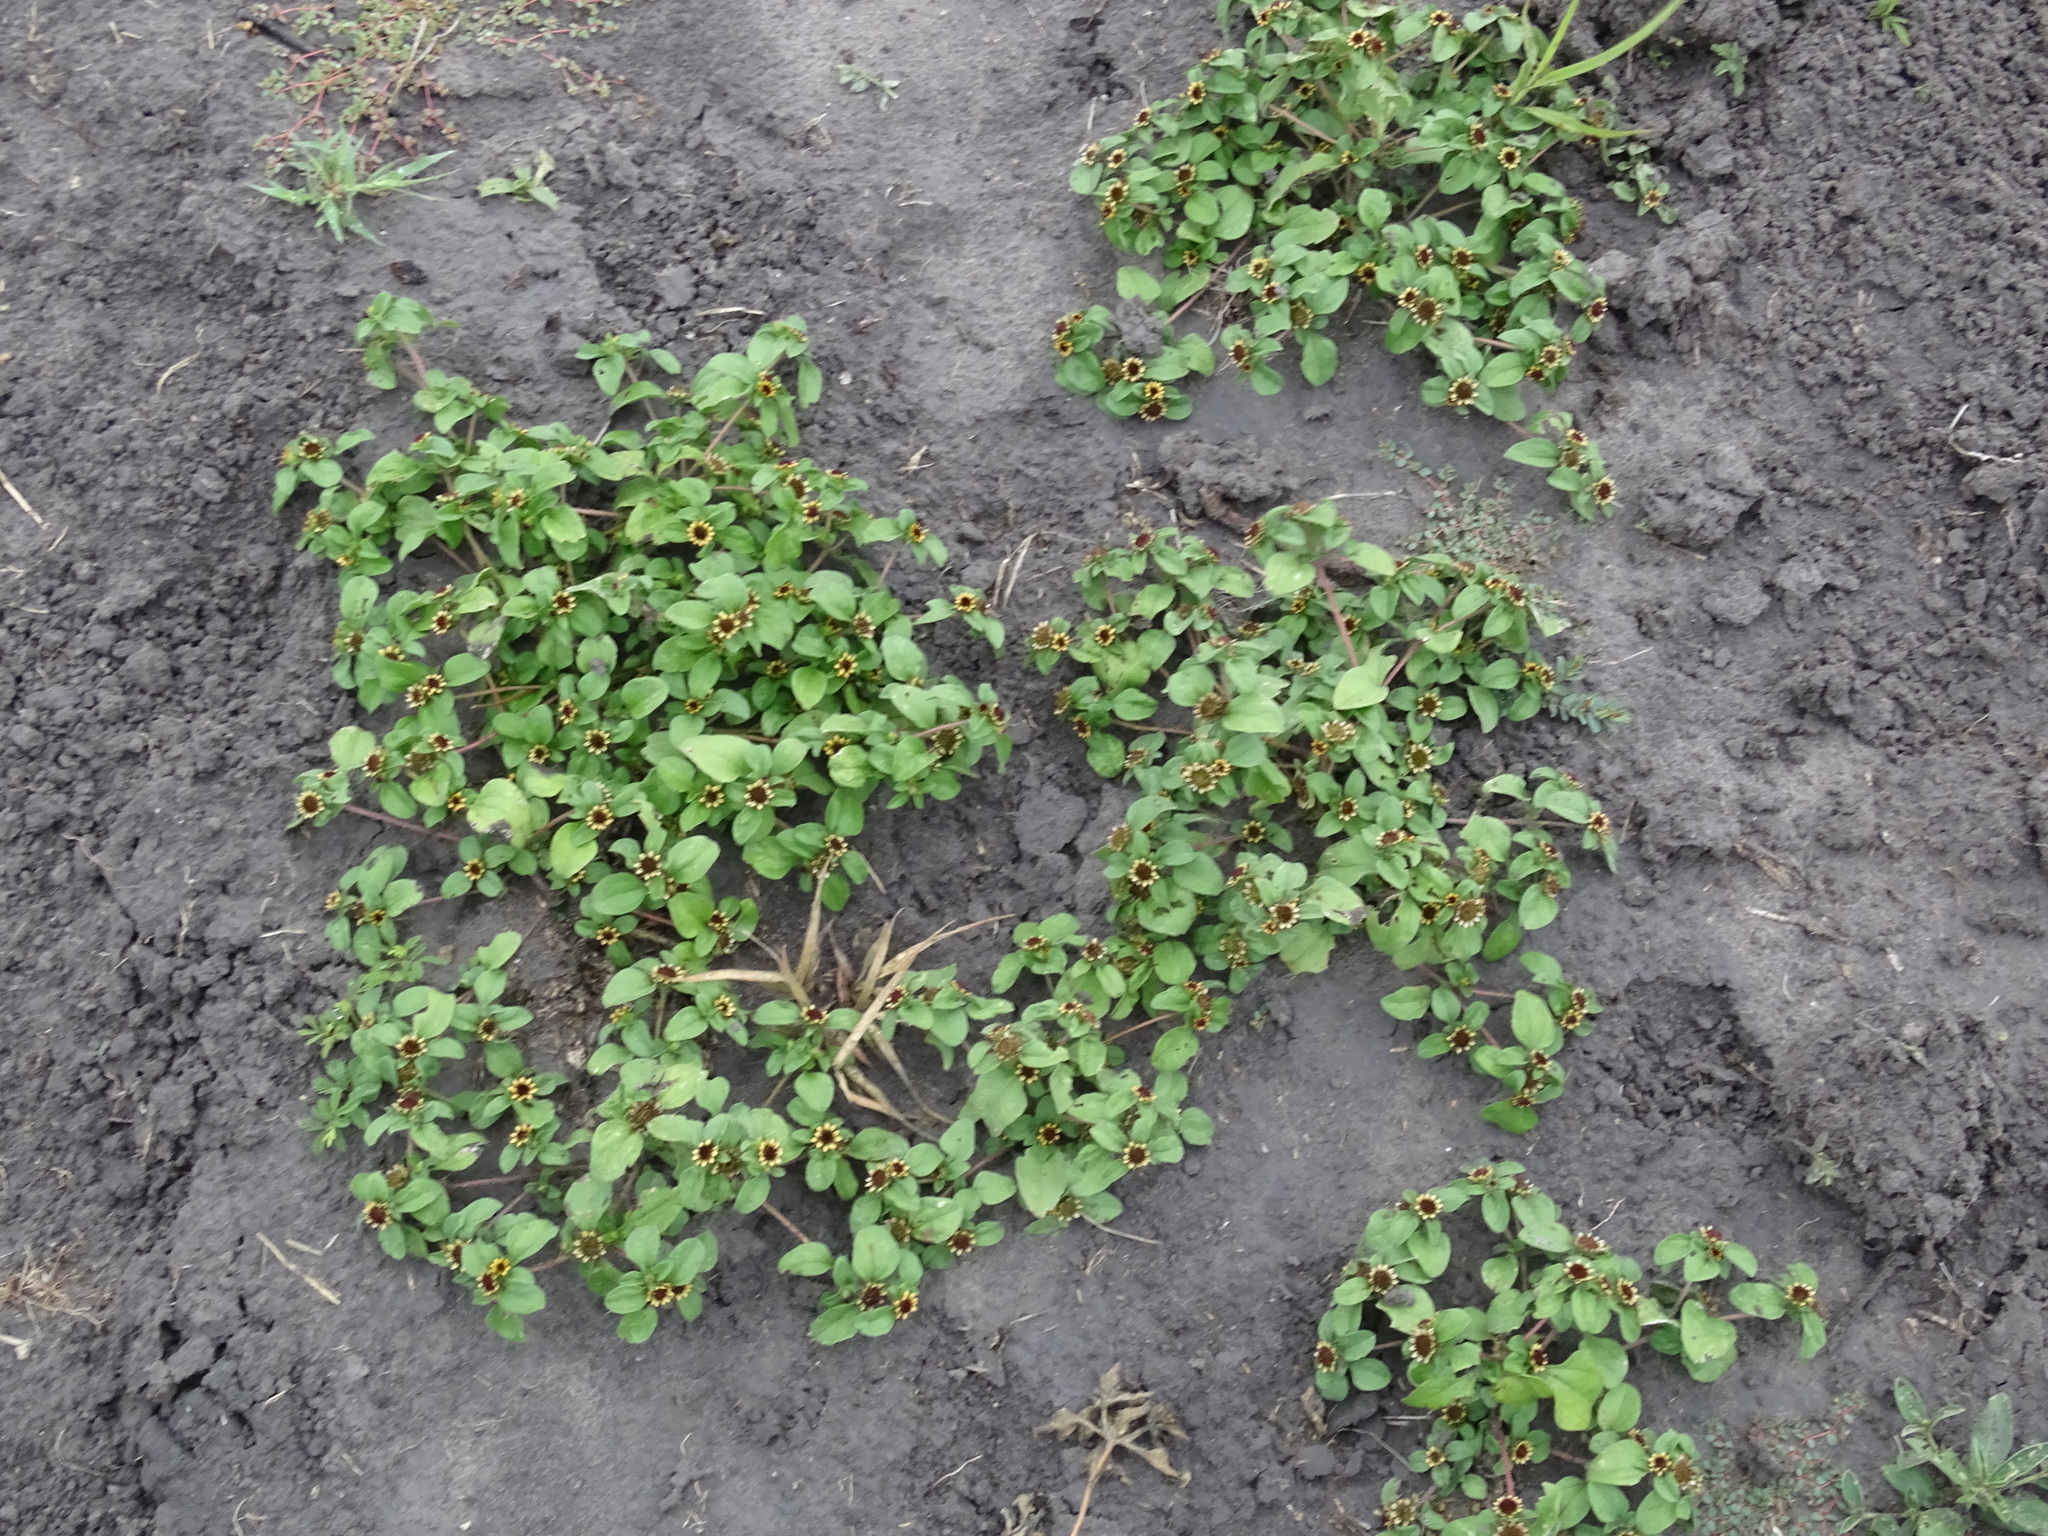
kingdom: Plantae
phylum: Tracheophyta
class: Magnoliopsida
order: Asterales
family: Asteraceae
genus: Sanvitalia
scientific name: Sanvitalia ocymoides
